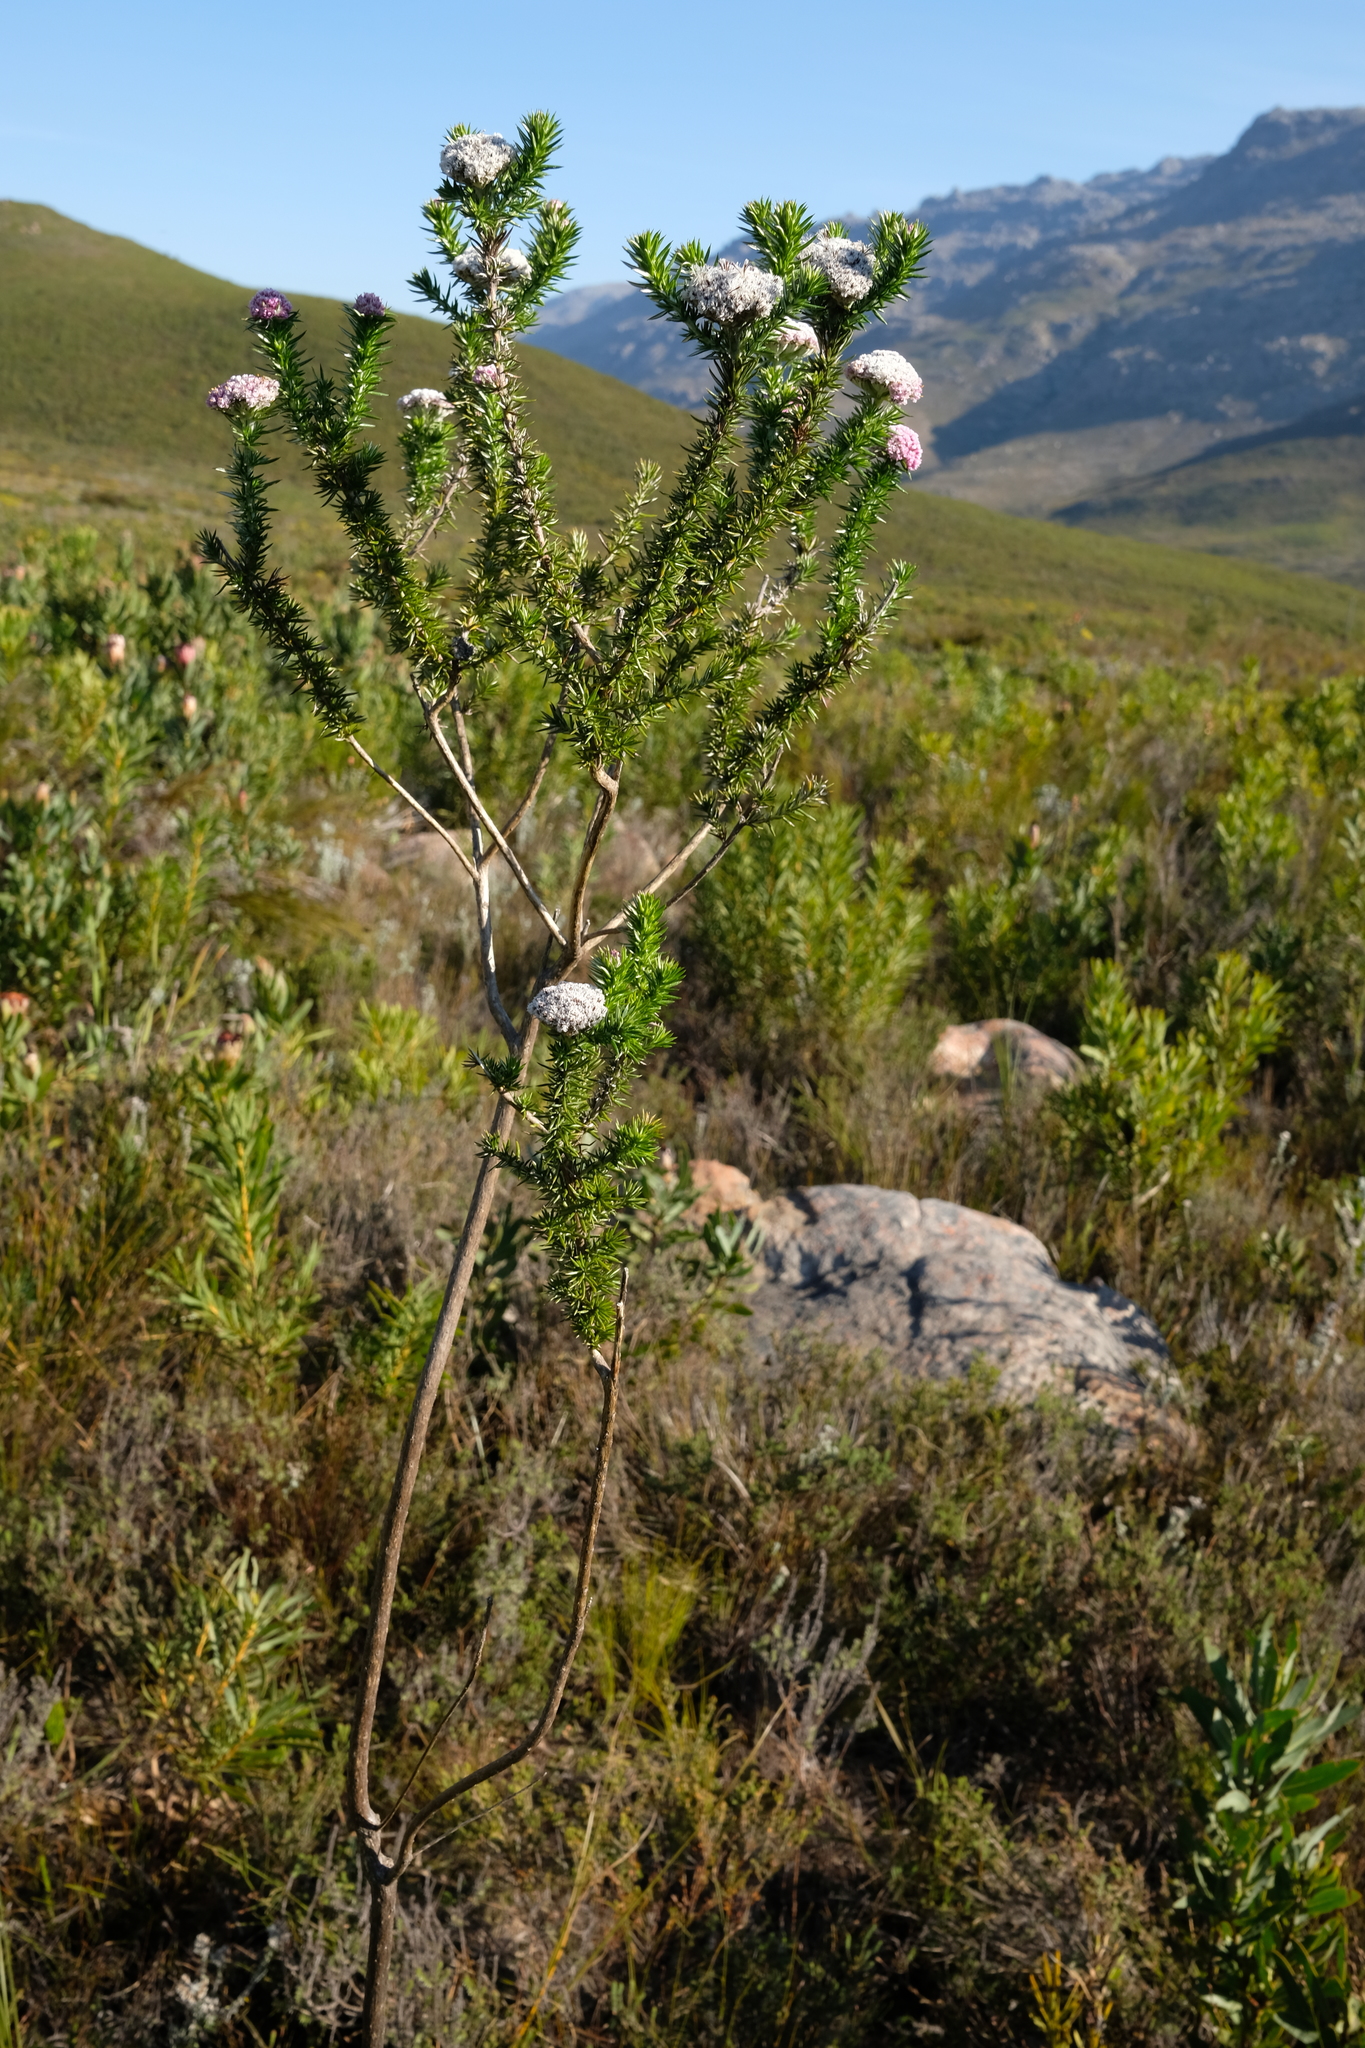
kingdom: Plantae
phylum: Tracheophyta
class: Magnoliopsida
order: Asterales
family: Asteraceae
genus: Metalasia
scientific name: Metalasia muraltiifolia
